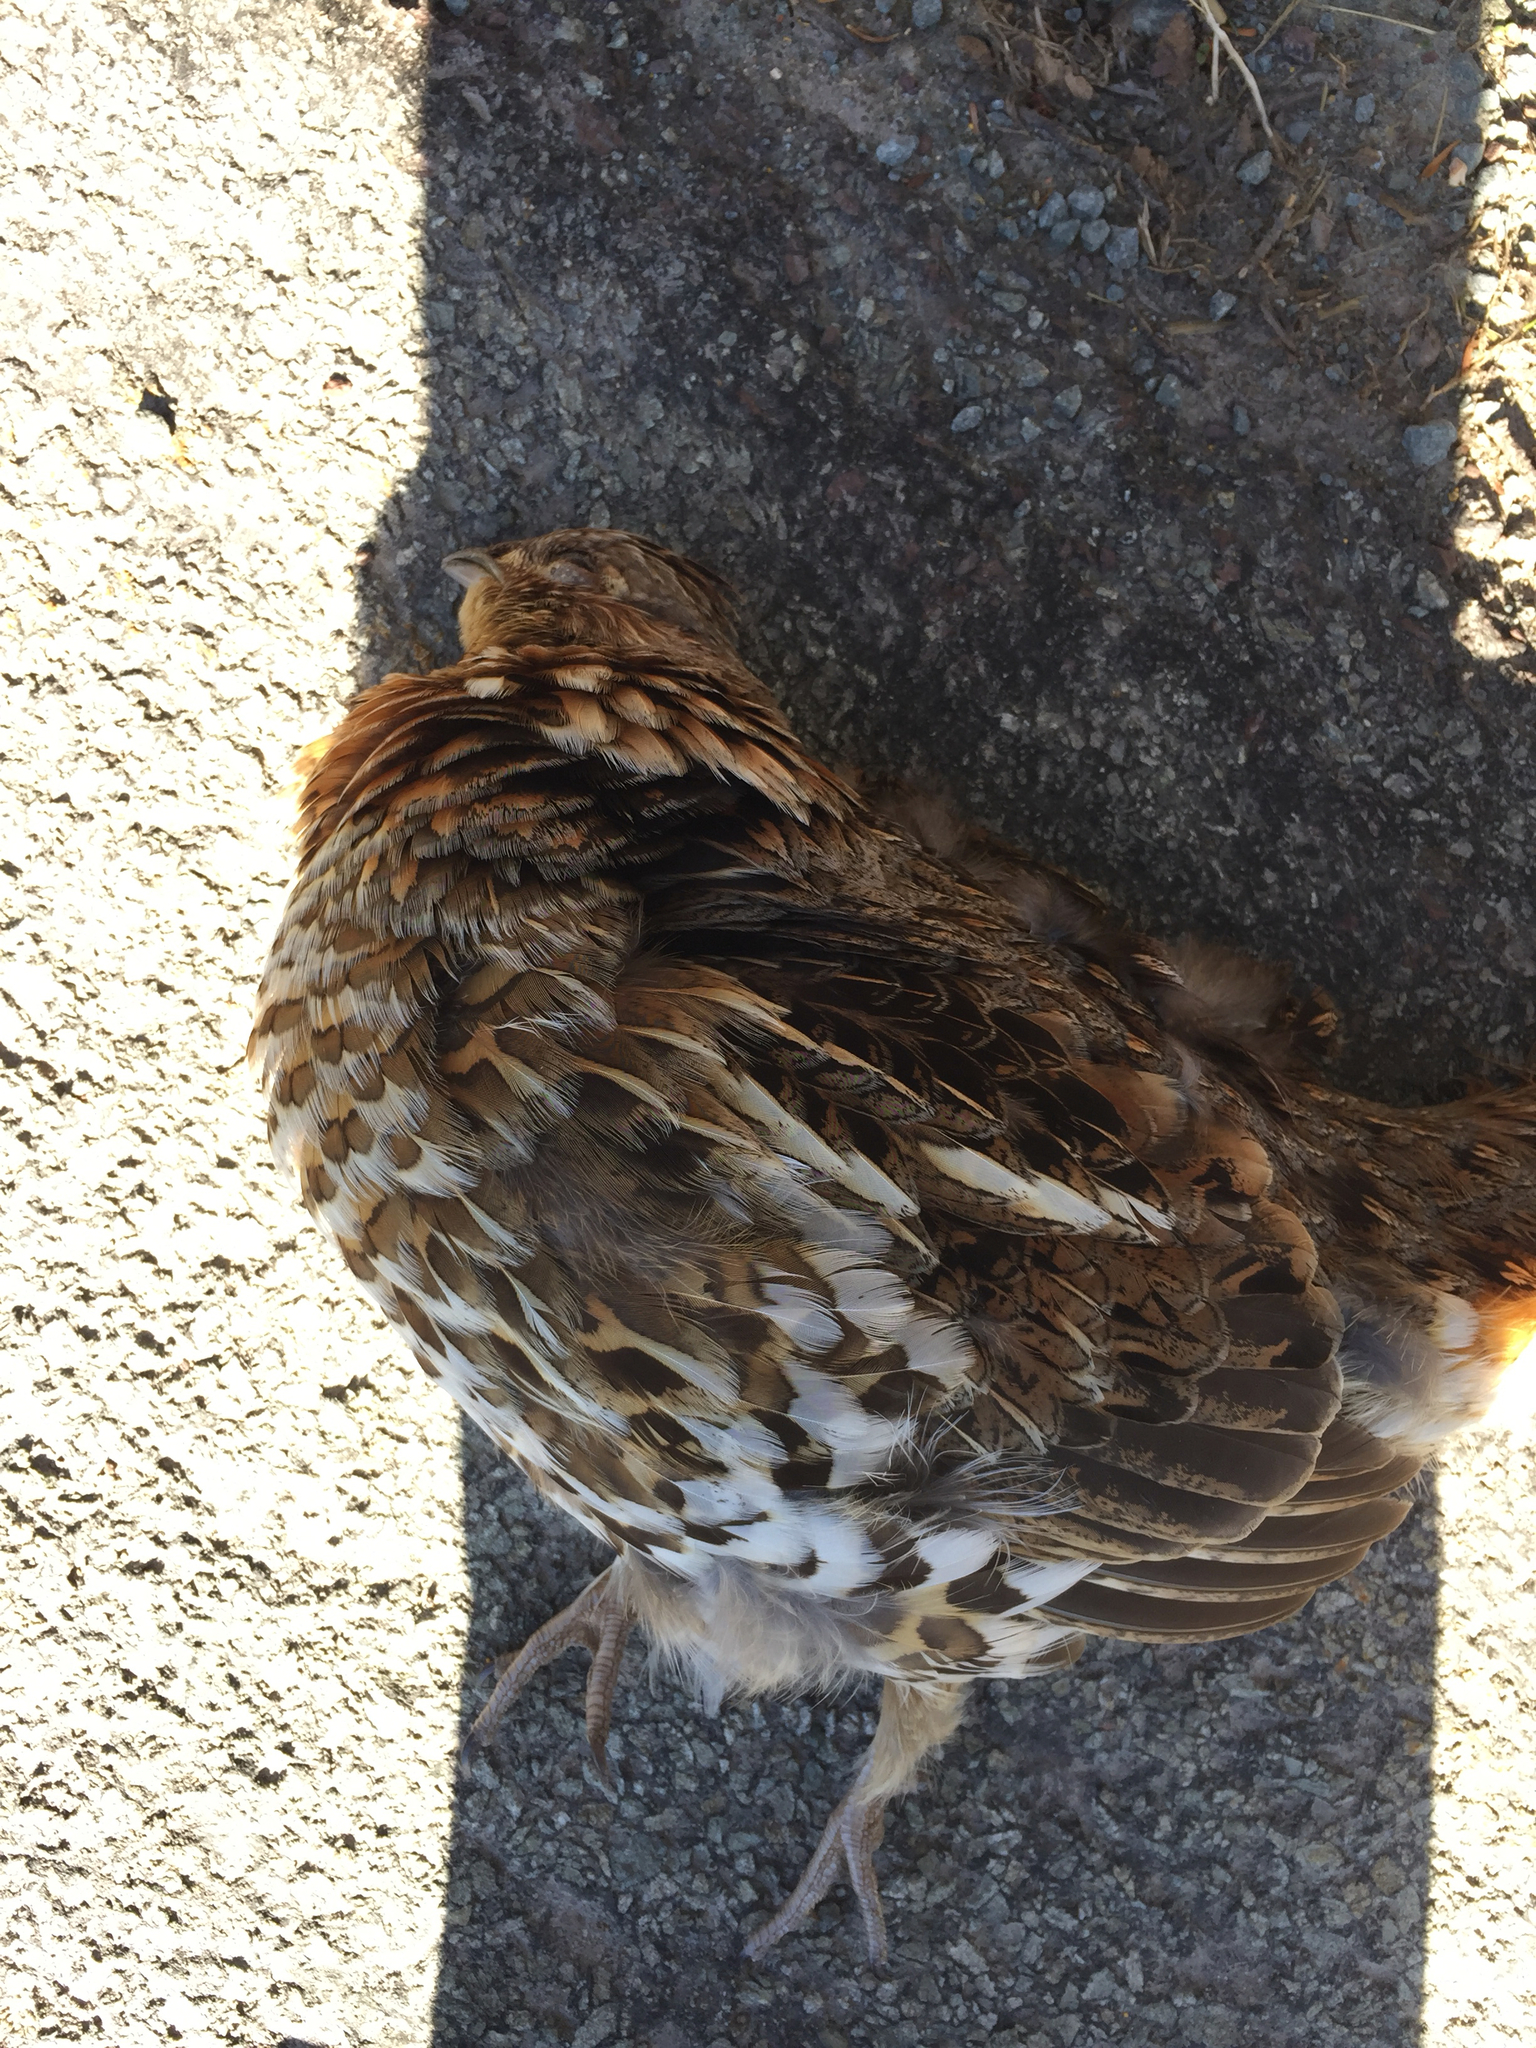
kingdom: Animalia
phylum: Chordata
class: Aves
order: Galliformes
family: Phasianidae
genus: Bonasa
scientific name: Bonasa umbellus
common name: Ruffed grouse
